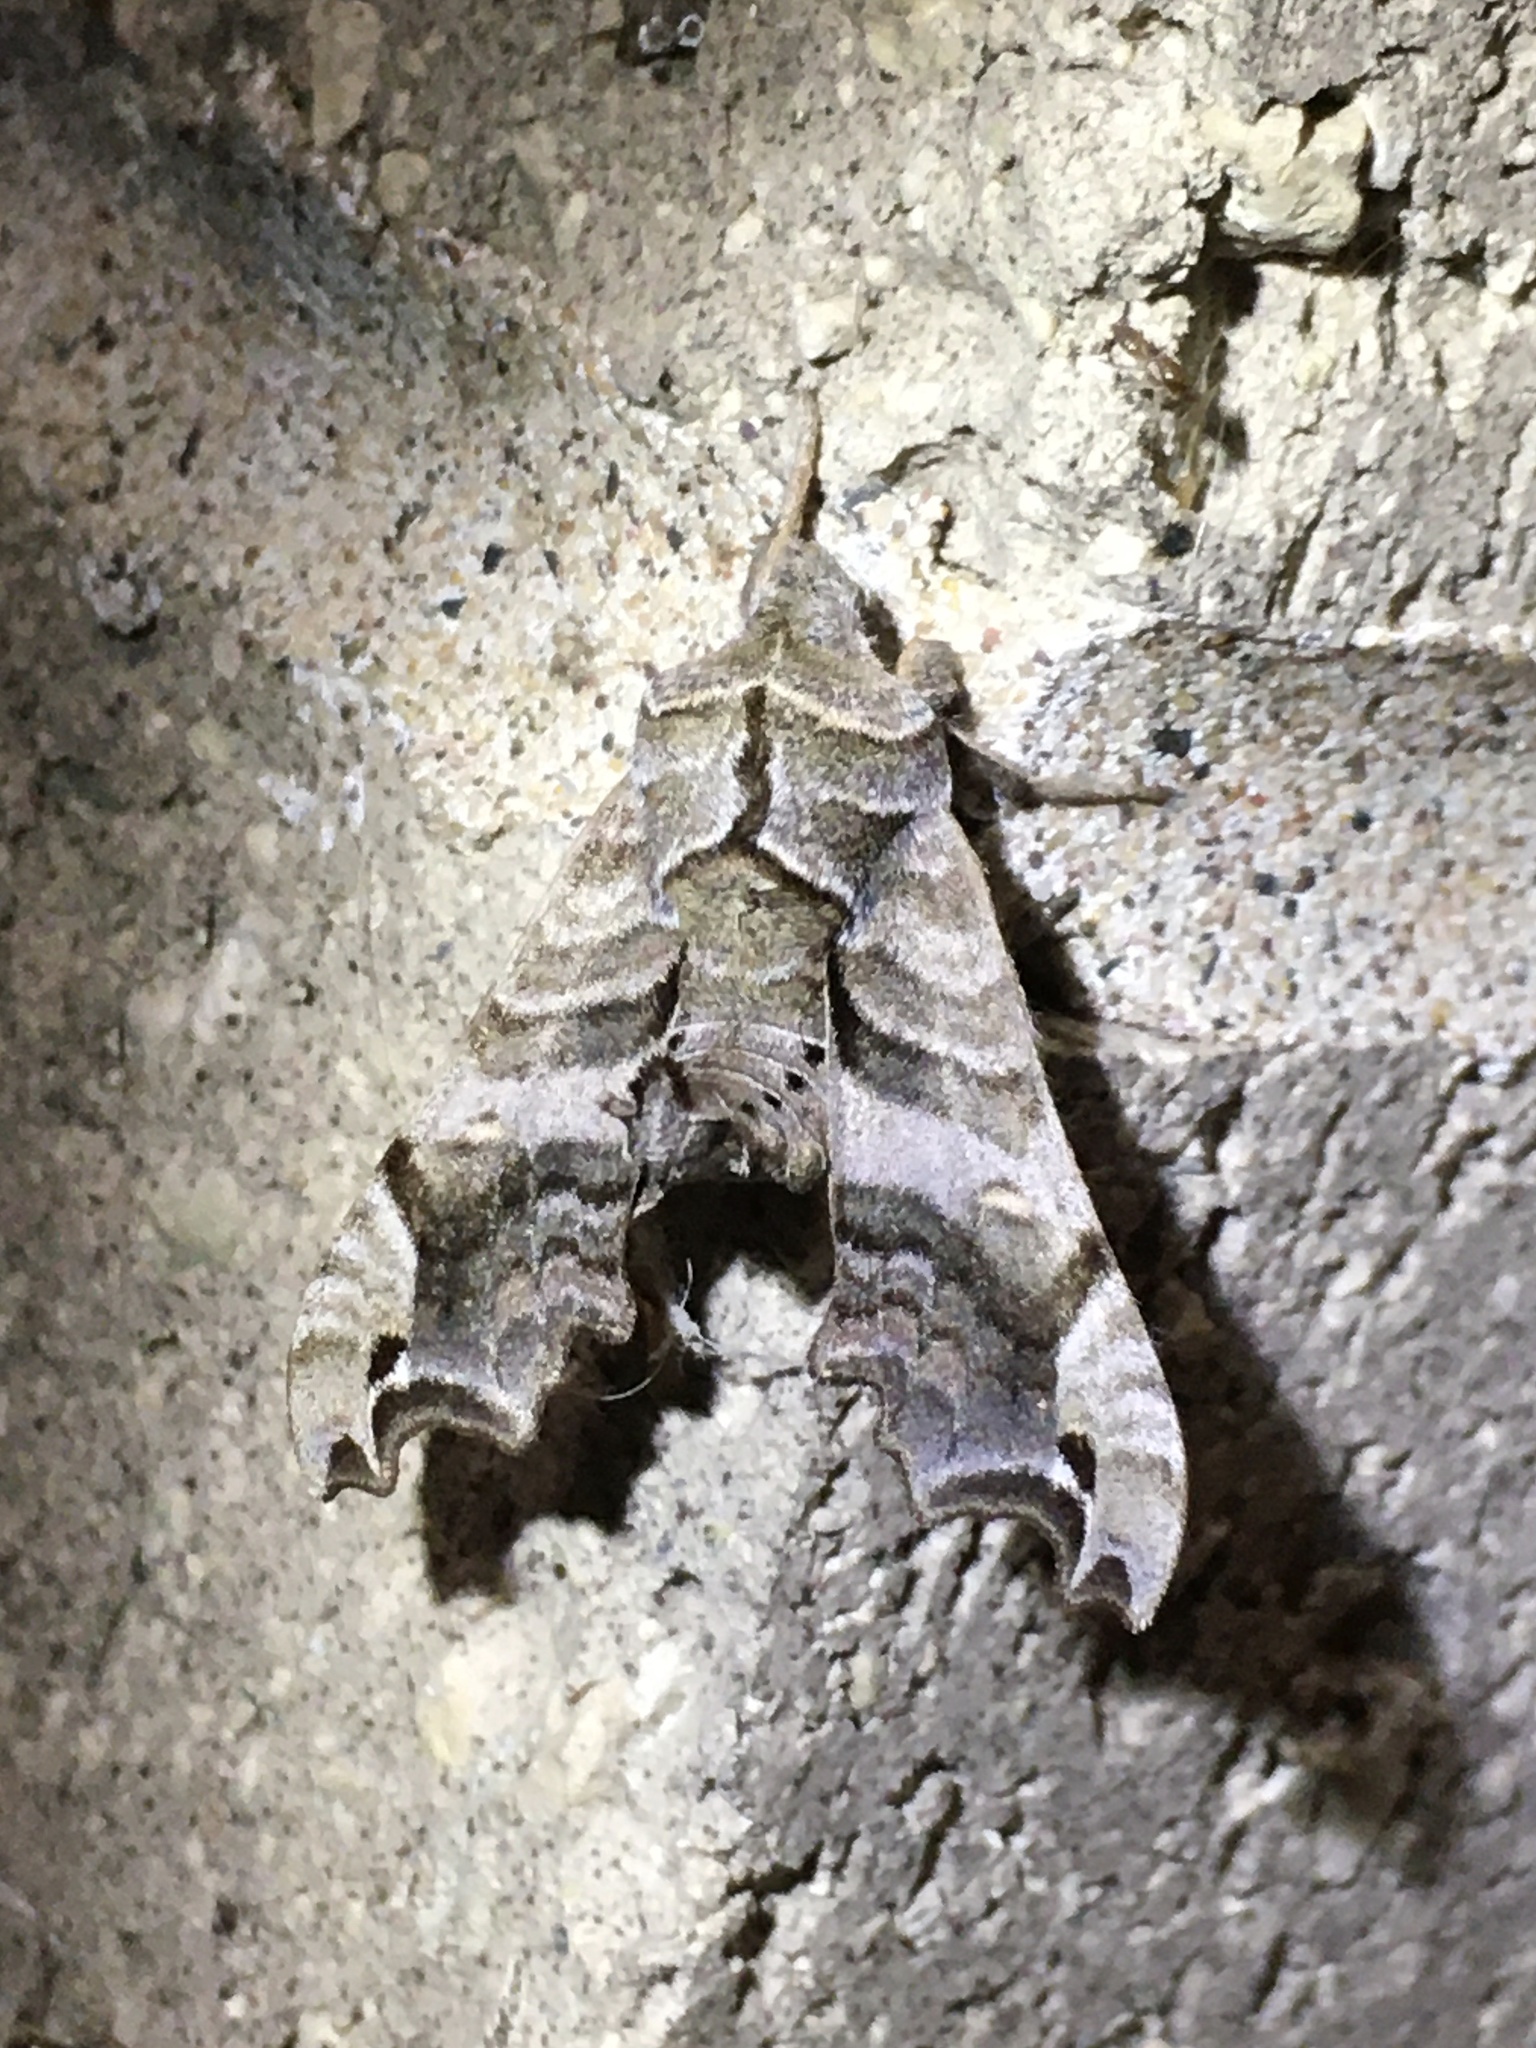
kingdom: Animalia
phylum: Arthropoda
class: Insecta
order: Lepidoptera
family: Sphingidae
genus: Deidamia
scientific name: Deidamia inscriptum
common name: Lettered sphinx
